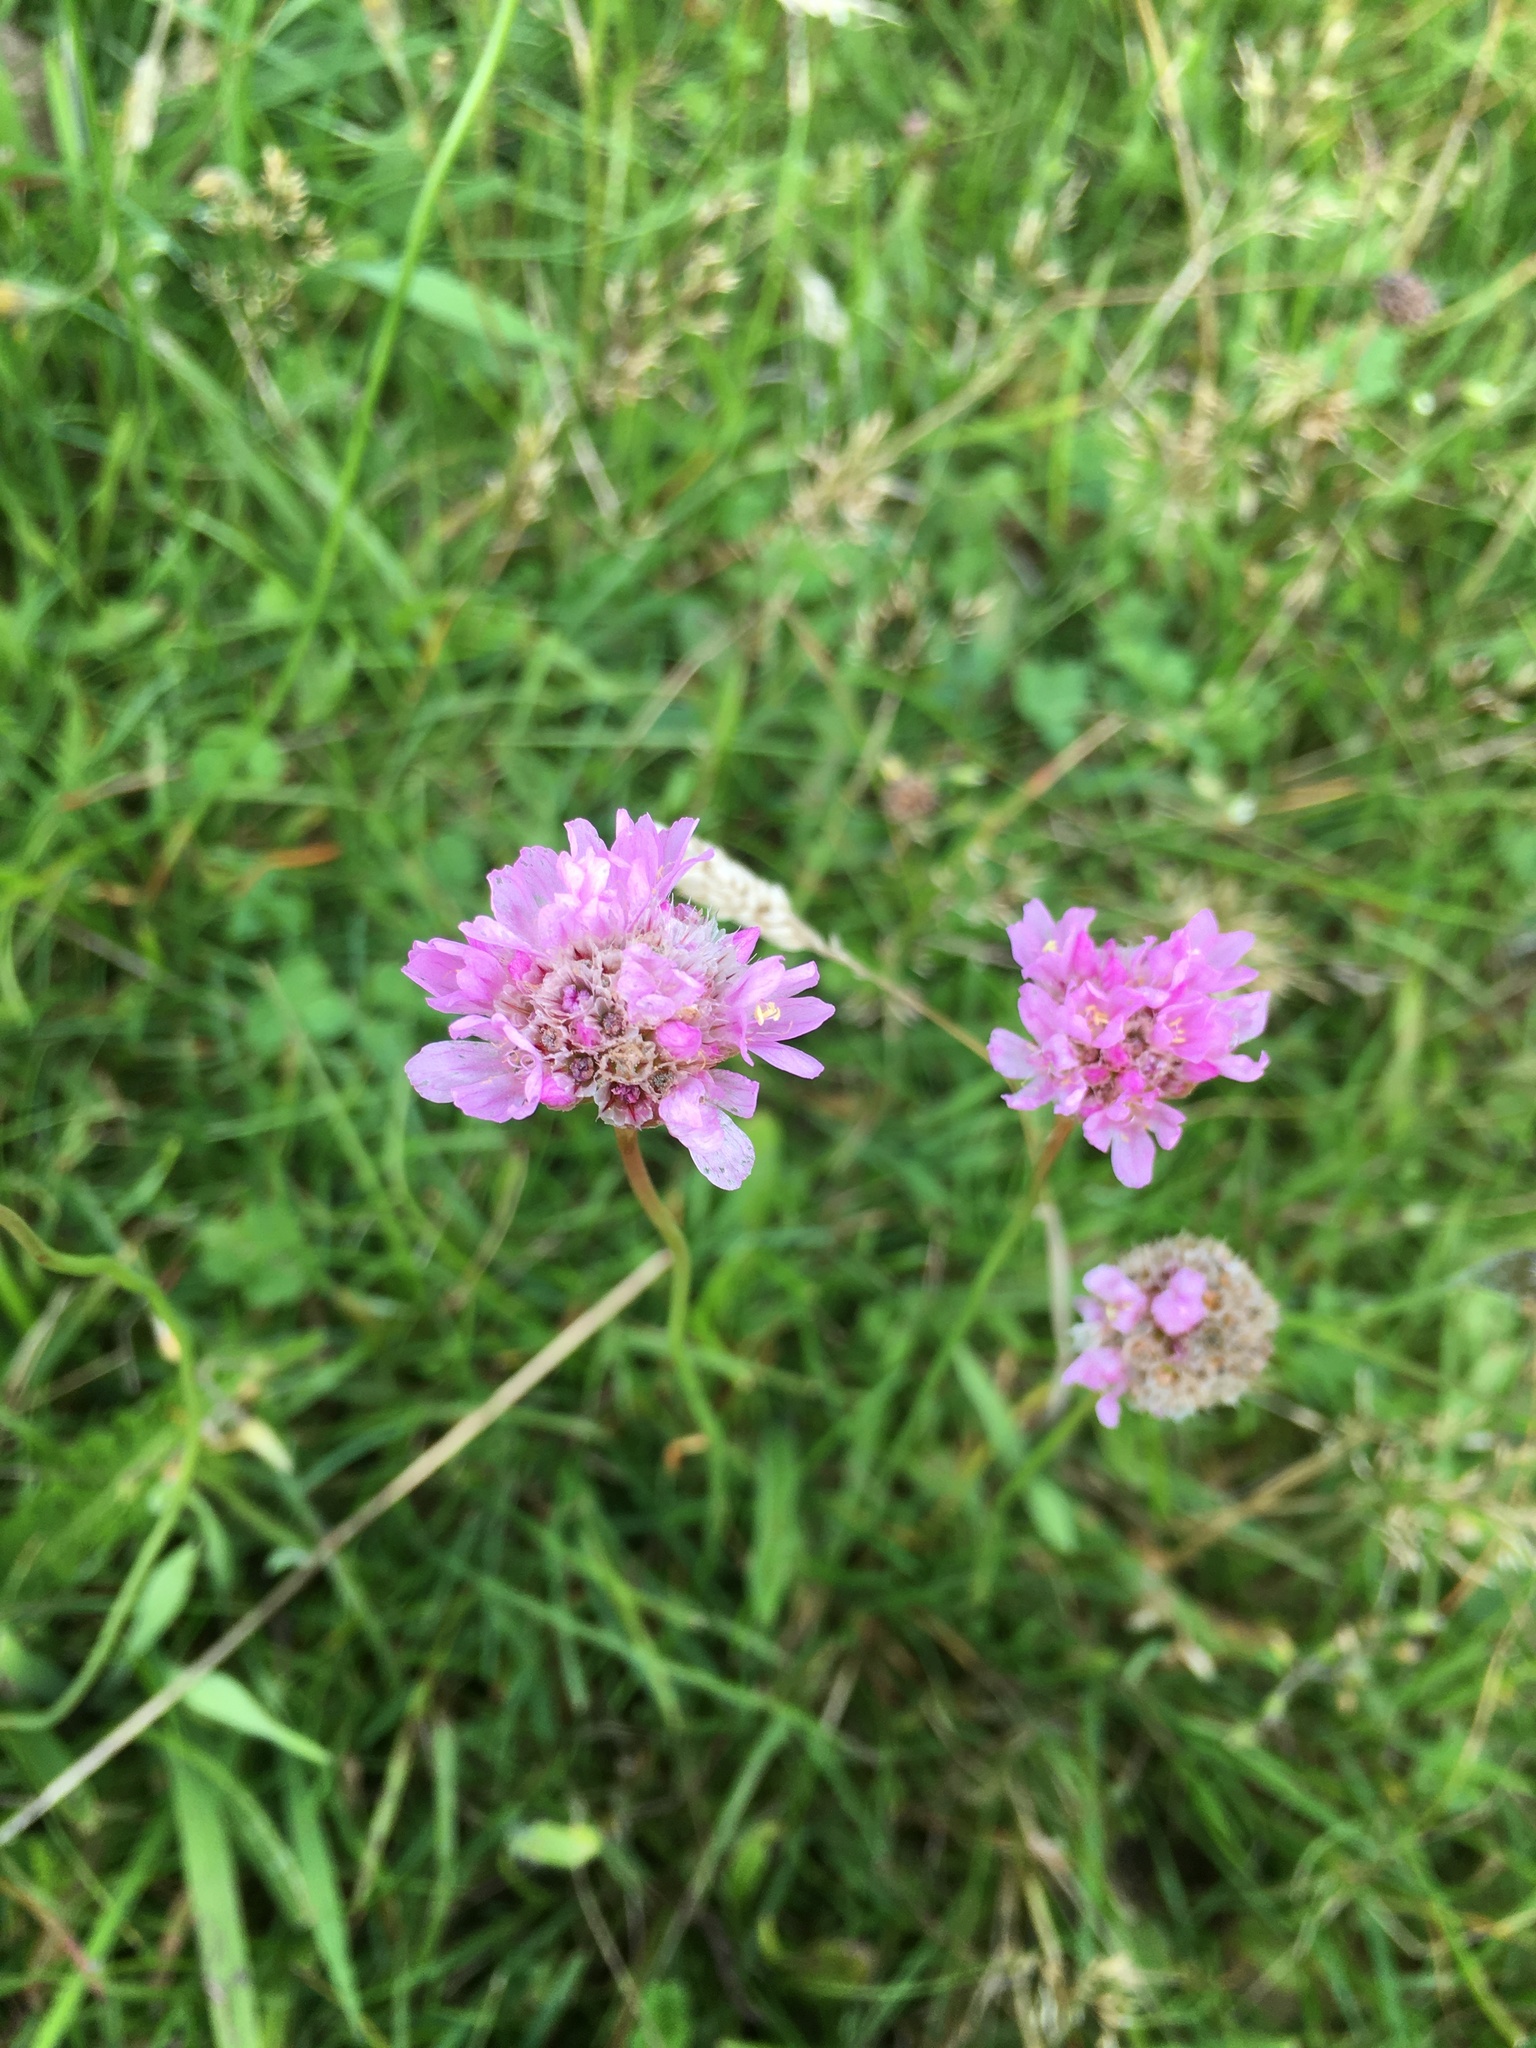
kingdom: Plantae
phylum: Tracheophyta
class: Magnoliopsida
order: Caryophyllales
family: Plumbaginaceae
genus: Armeria
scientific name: Armeria maritima
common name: Thrift
